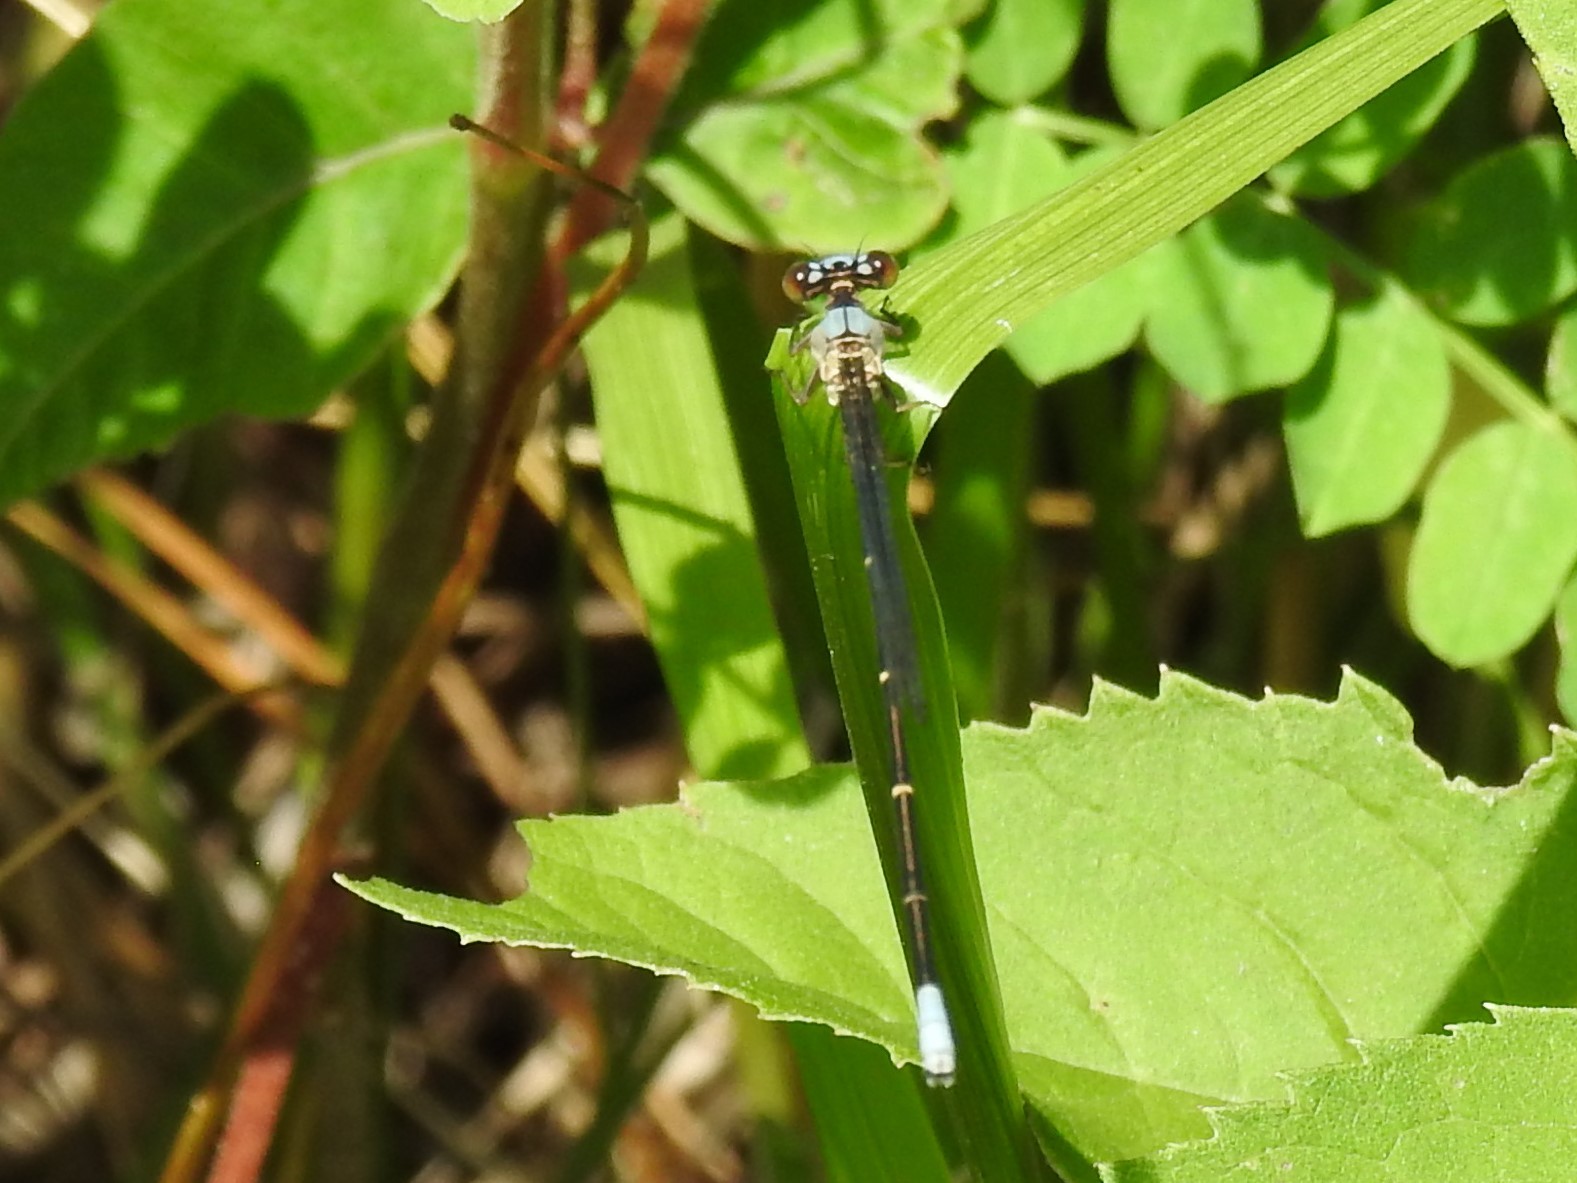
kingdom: Animalia
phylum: Arthropoda
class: Insecta
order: Odonata
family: Coenagrionidae
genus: Argia
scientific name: Argia apicalis
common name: Blue-fronted dancer
